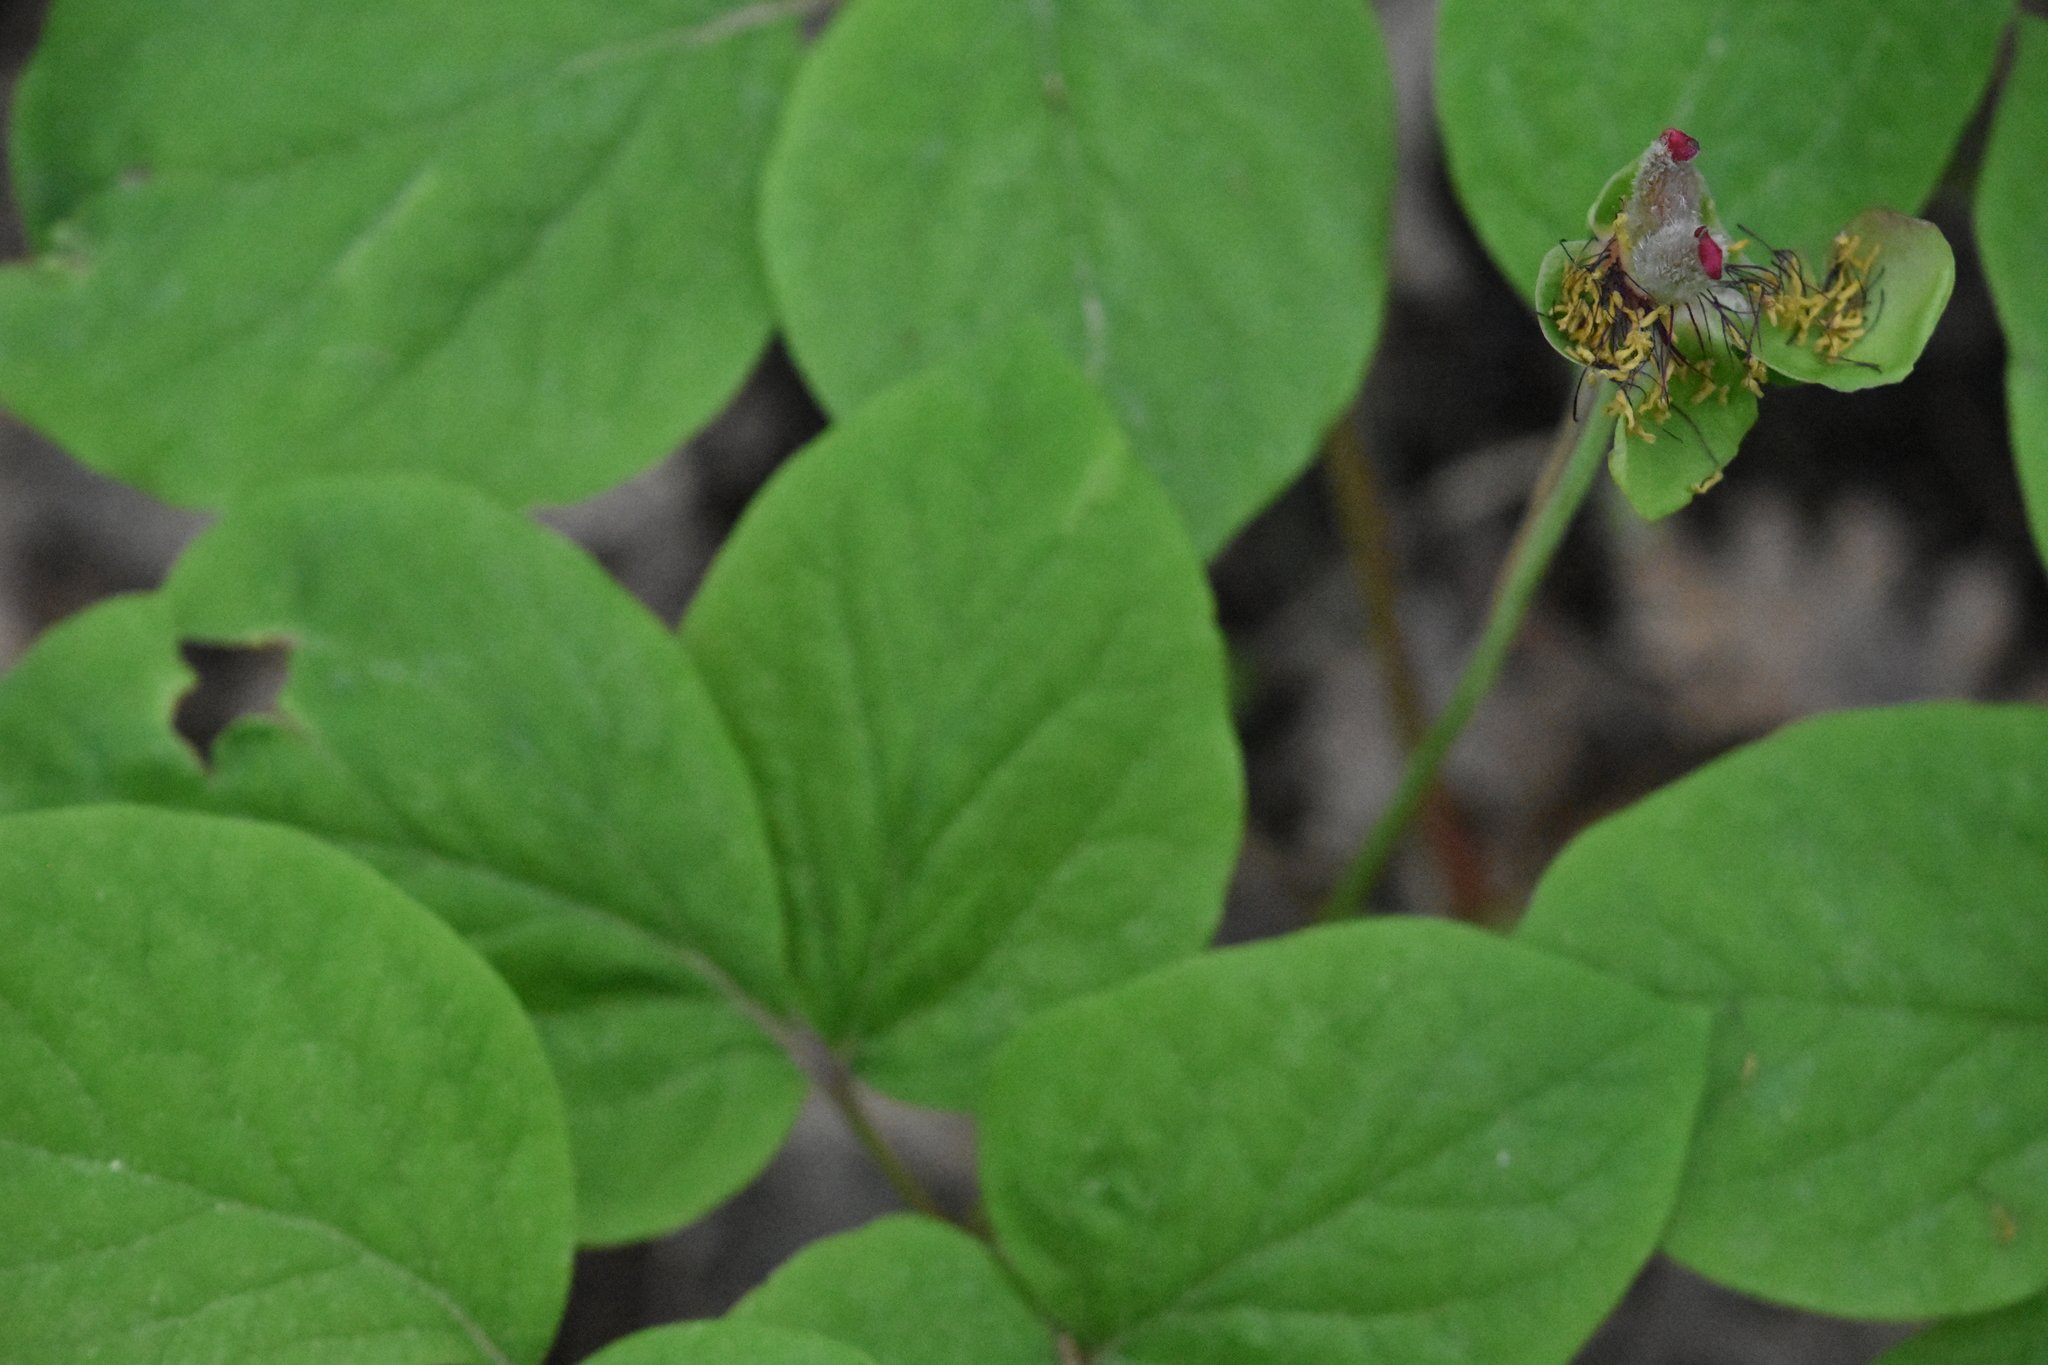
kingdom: Plantae
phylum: Tracheophyta
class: Magnoliopsida
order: Saxifragales
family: Paeoniaceae
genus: Paeonia
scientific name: Paeonia caucasica
